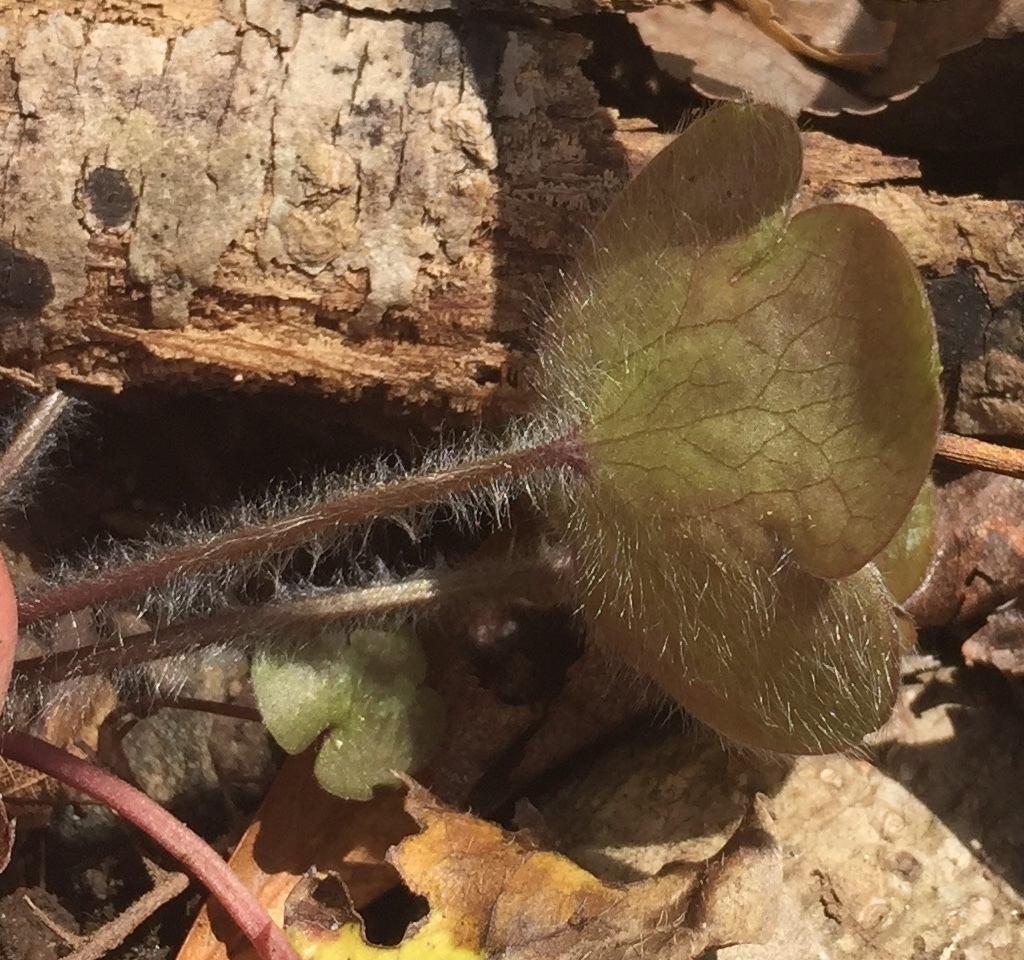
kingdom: Plantae
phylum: Tracheophyta
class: Magnoliopsida
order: Ranunculales
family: Ranunculaceae
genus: Hepatica
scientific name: Hepatica americana
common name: American hepatica
